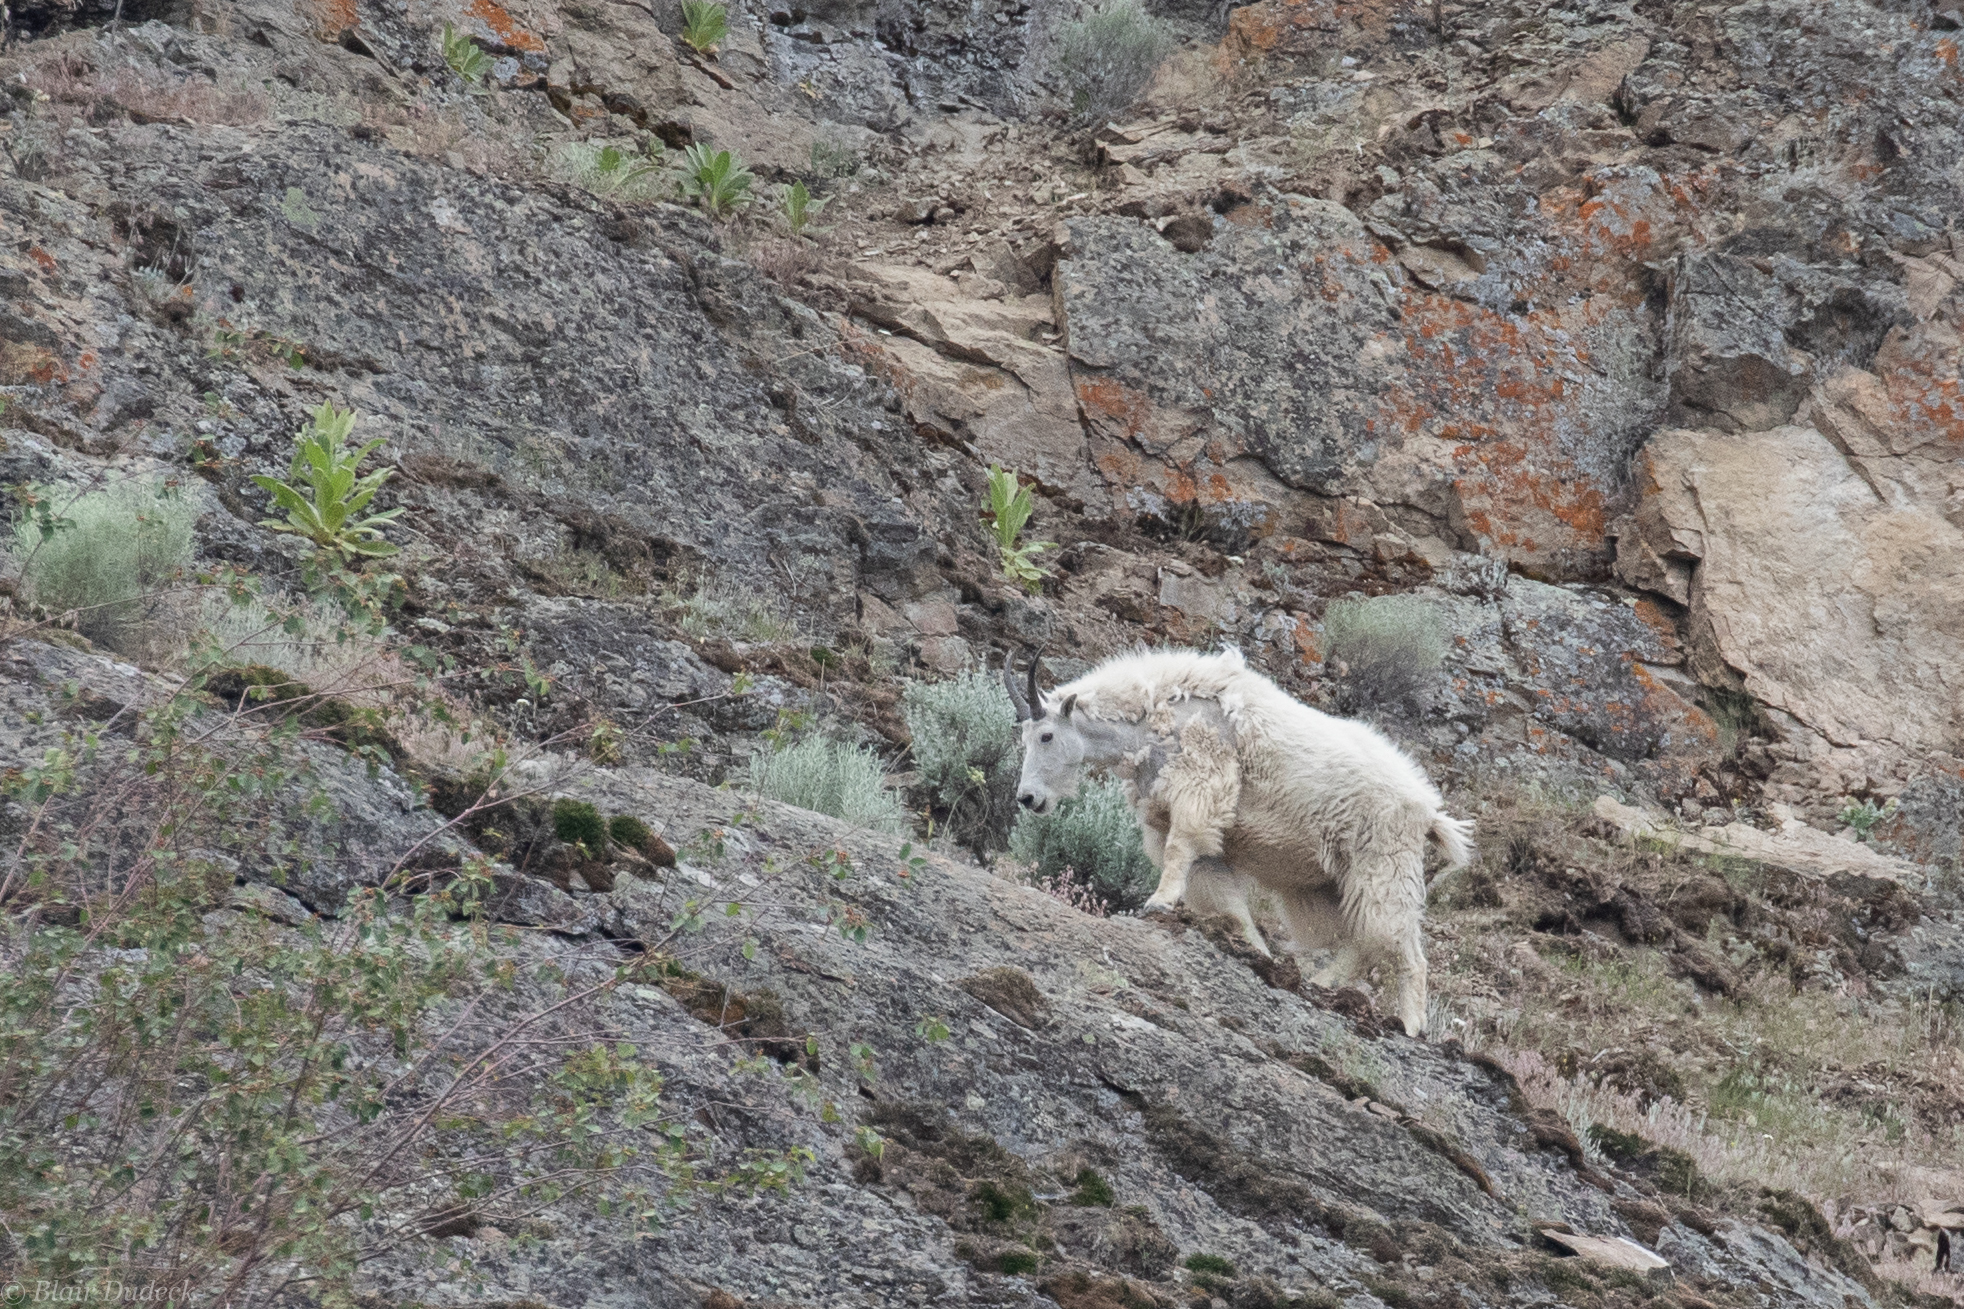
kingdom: Animalia
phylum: Chordata
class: Mammalia
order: Artiodactyla
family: Bovidae
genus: Oreamnos
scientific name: Oreamnos americanus
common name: Mountain goat
